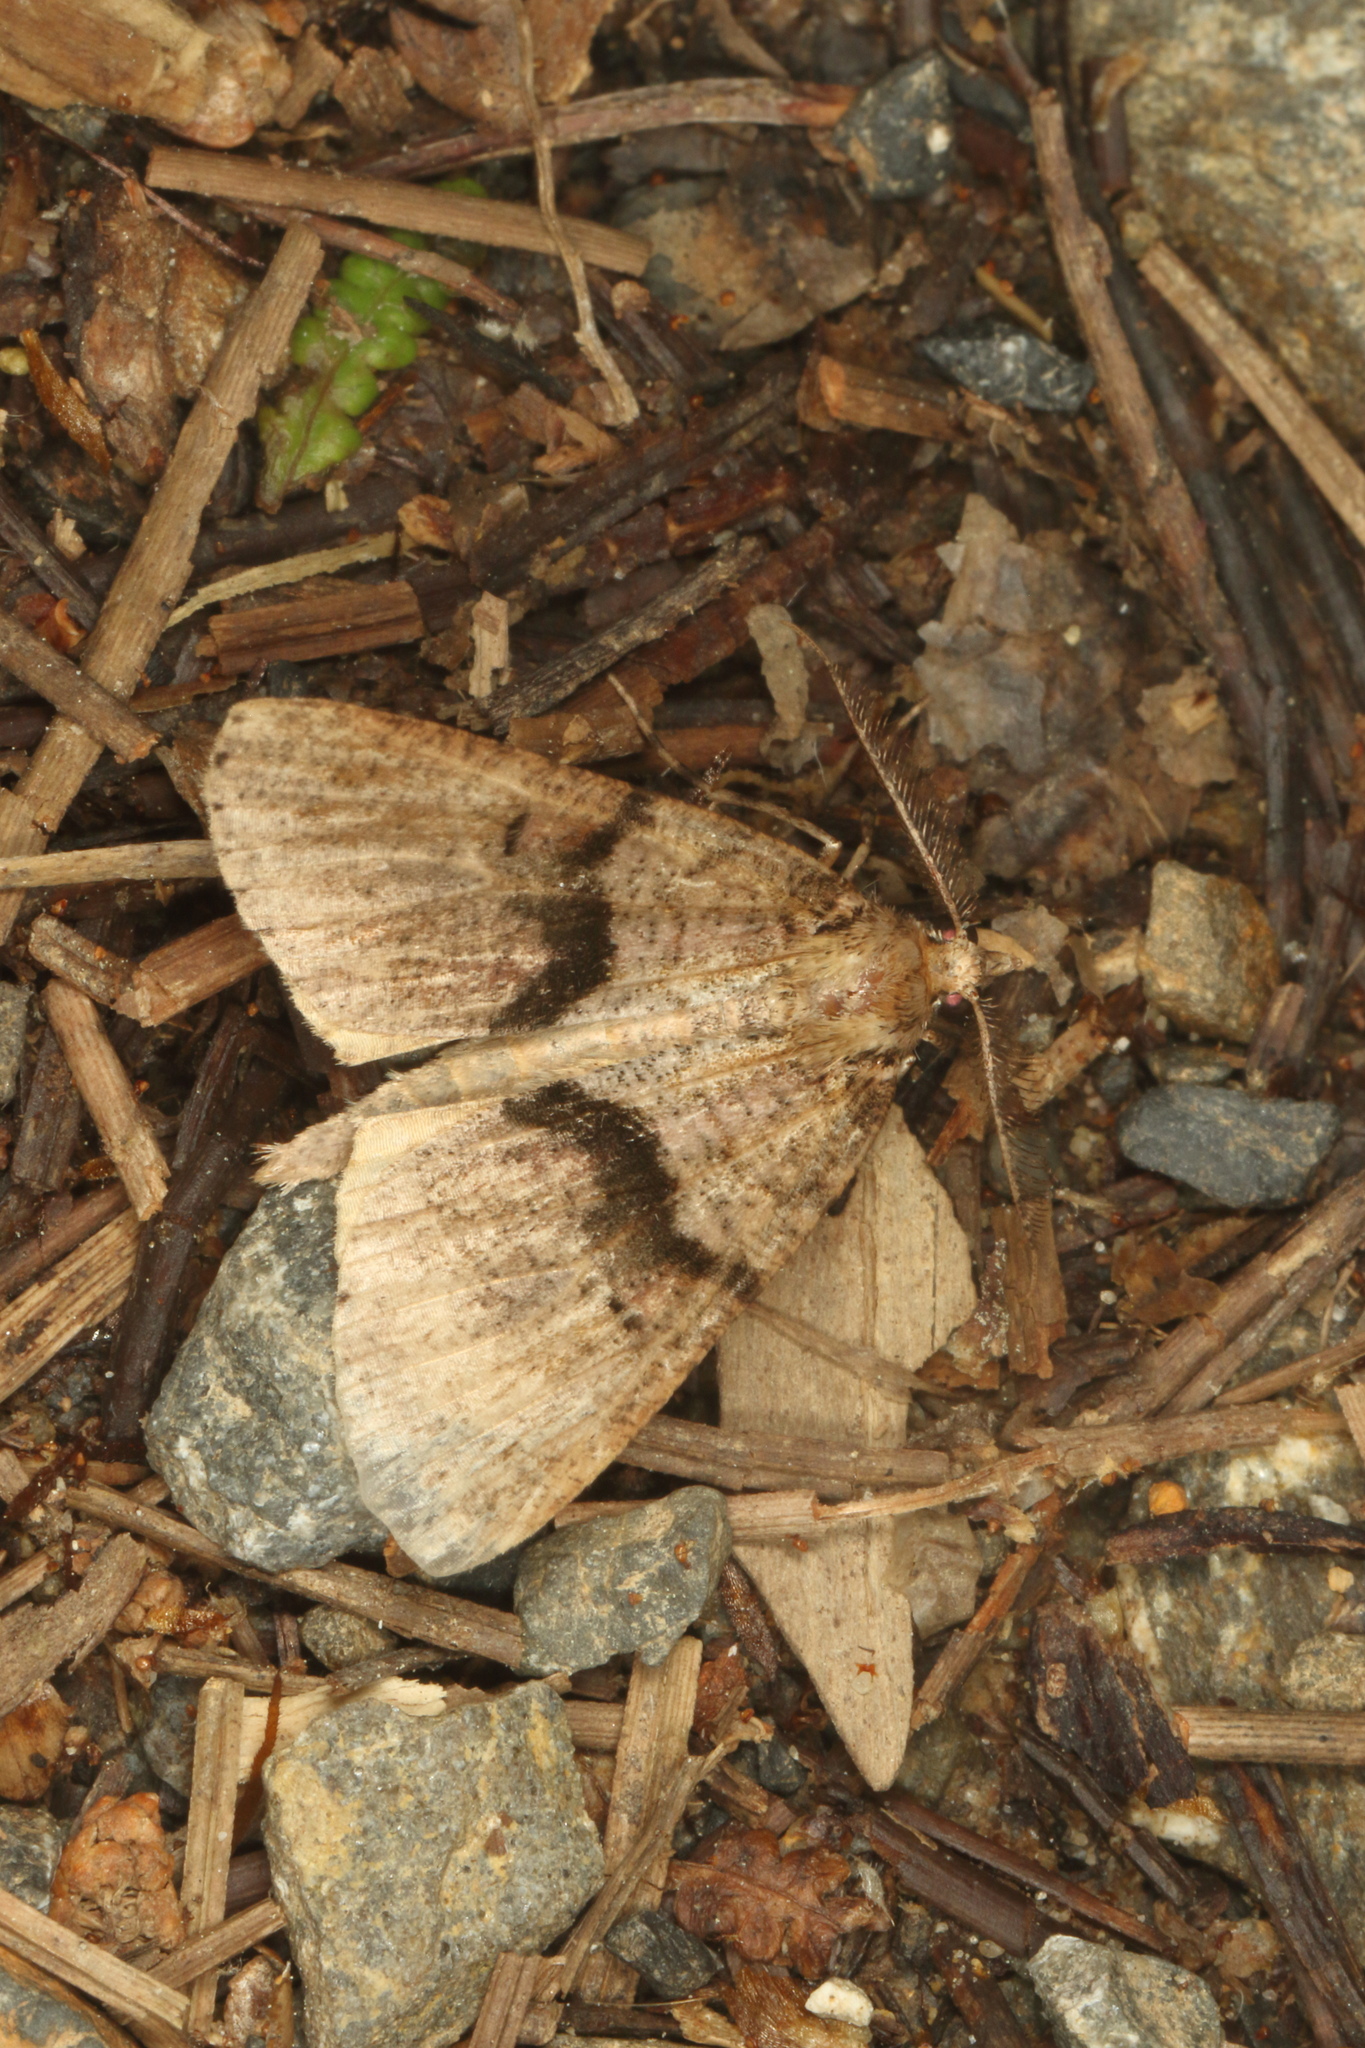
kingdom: Animalia
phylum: Arthropoda
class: Insecta
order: Lepidoptera
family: Geometridae
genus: Pseudocoremia
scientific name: Pseudocoremia suavis
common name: Common forest looper
